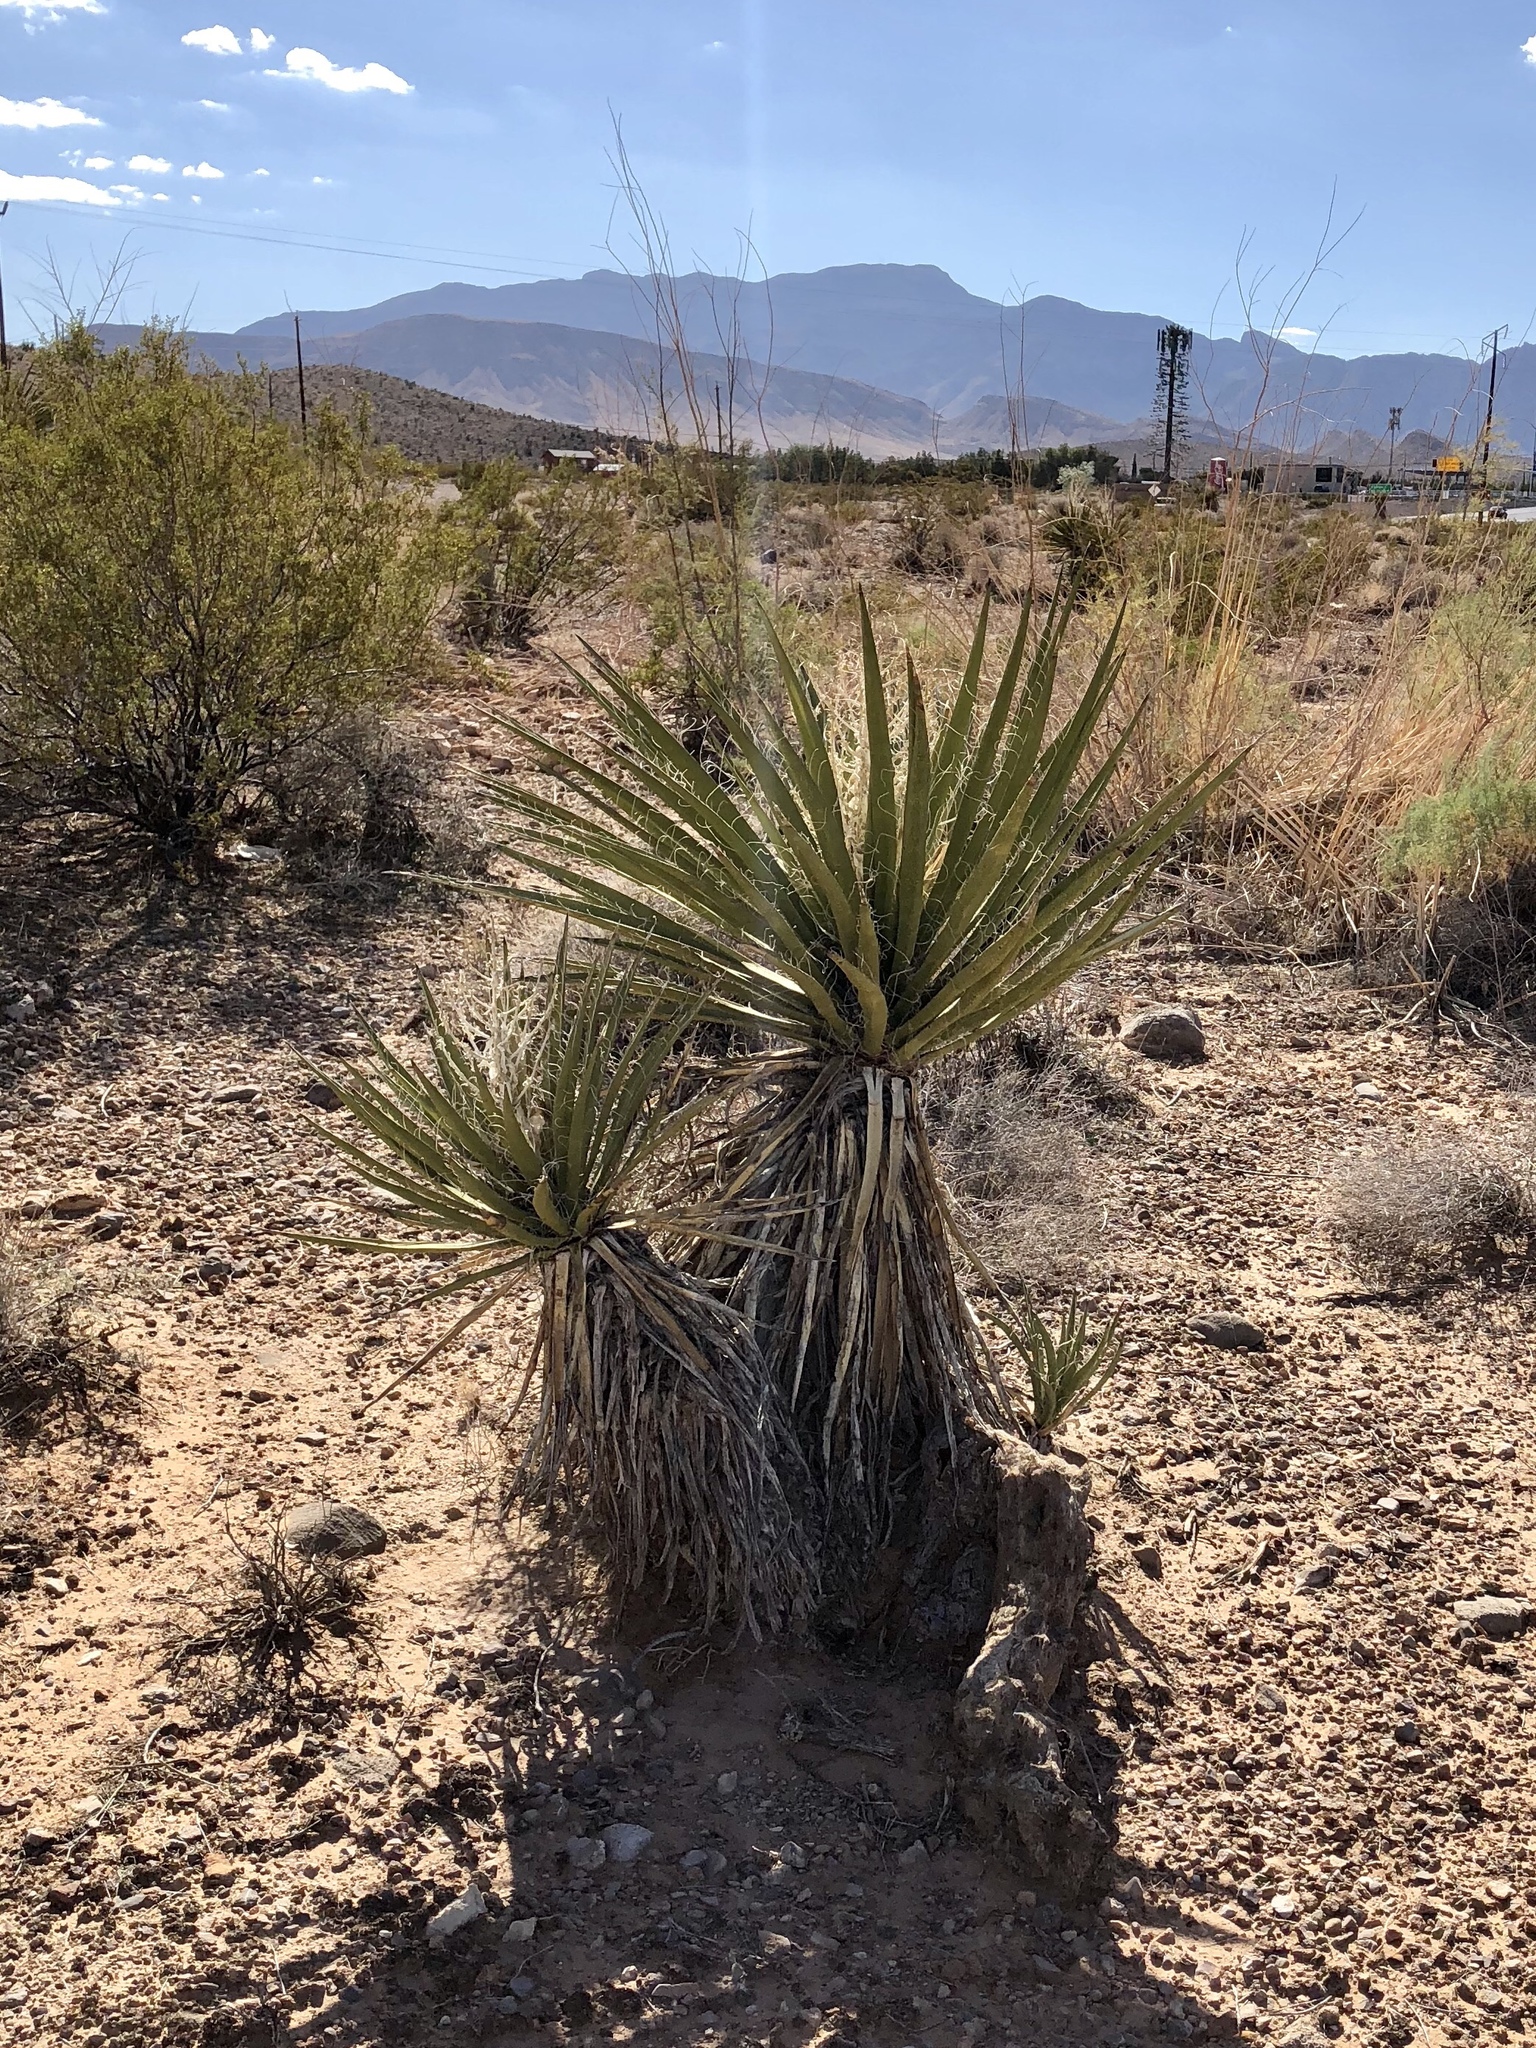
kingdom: Plantae
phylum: Tracheophyta
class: Liliopsida
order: Asparagales
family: Asparagaceae
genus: Yucca
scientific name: Yucca schidigera
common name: Mojave yucca
